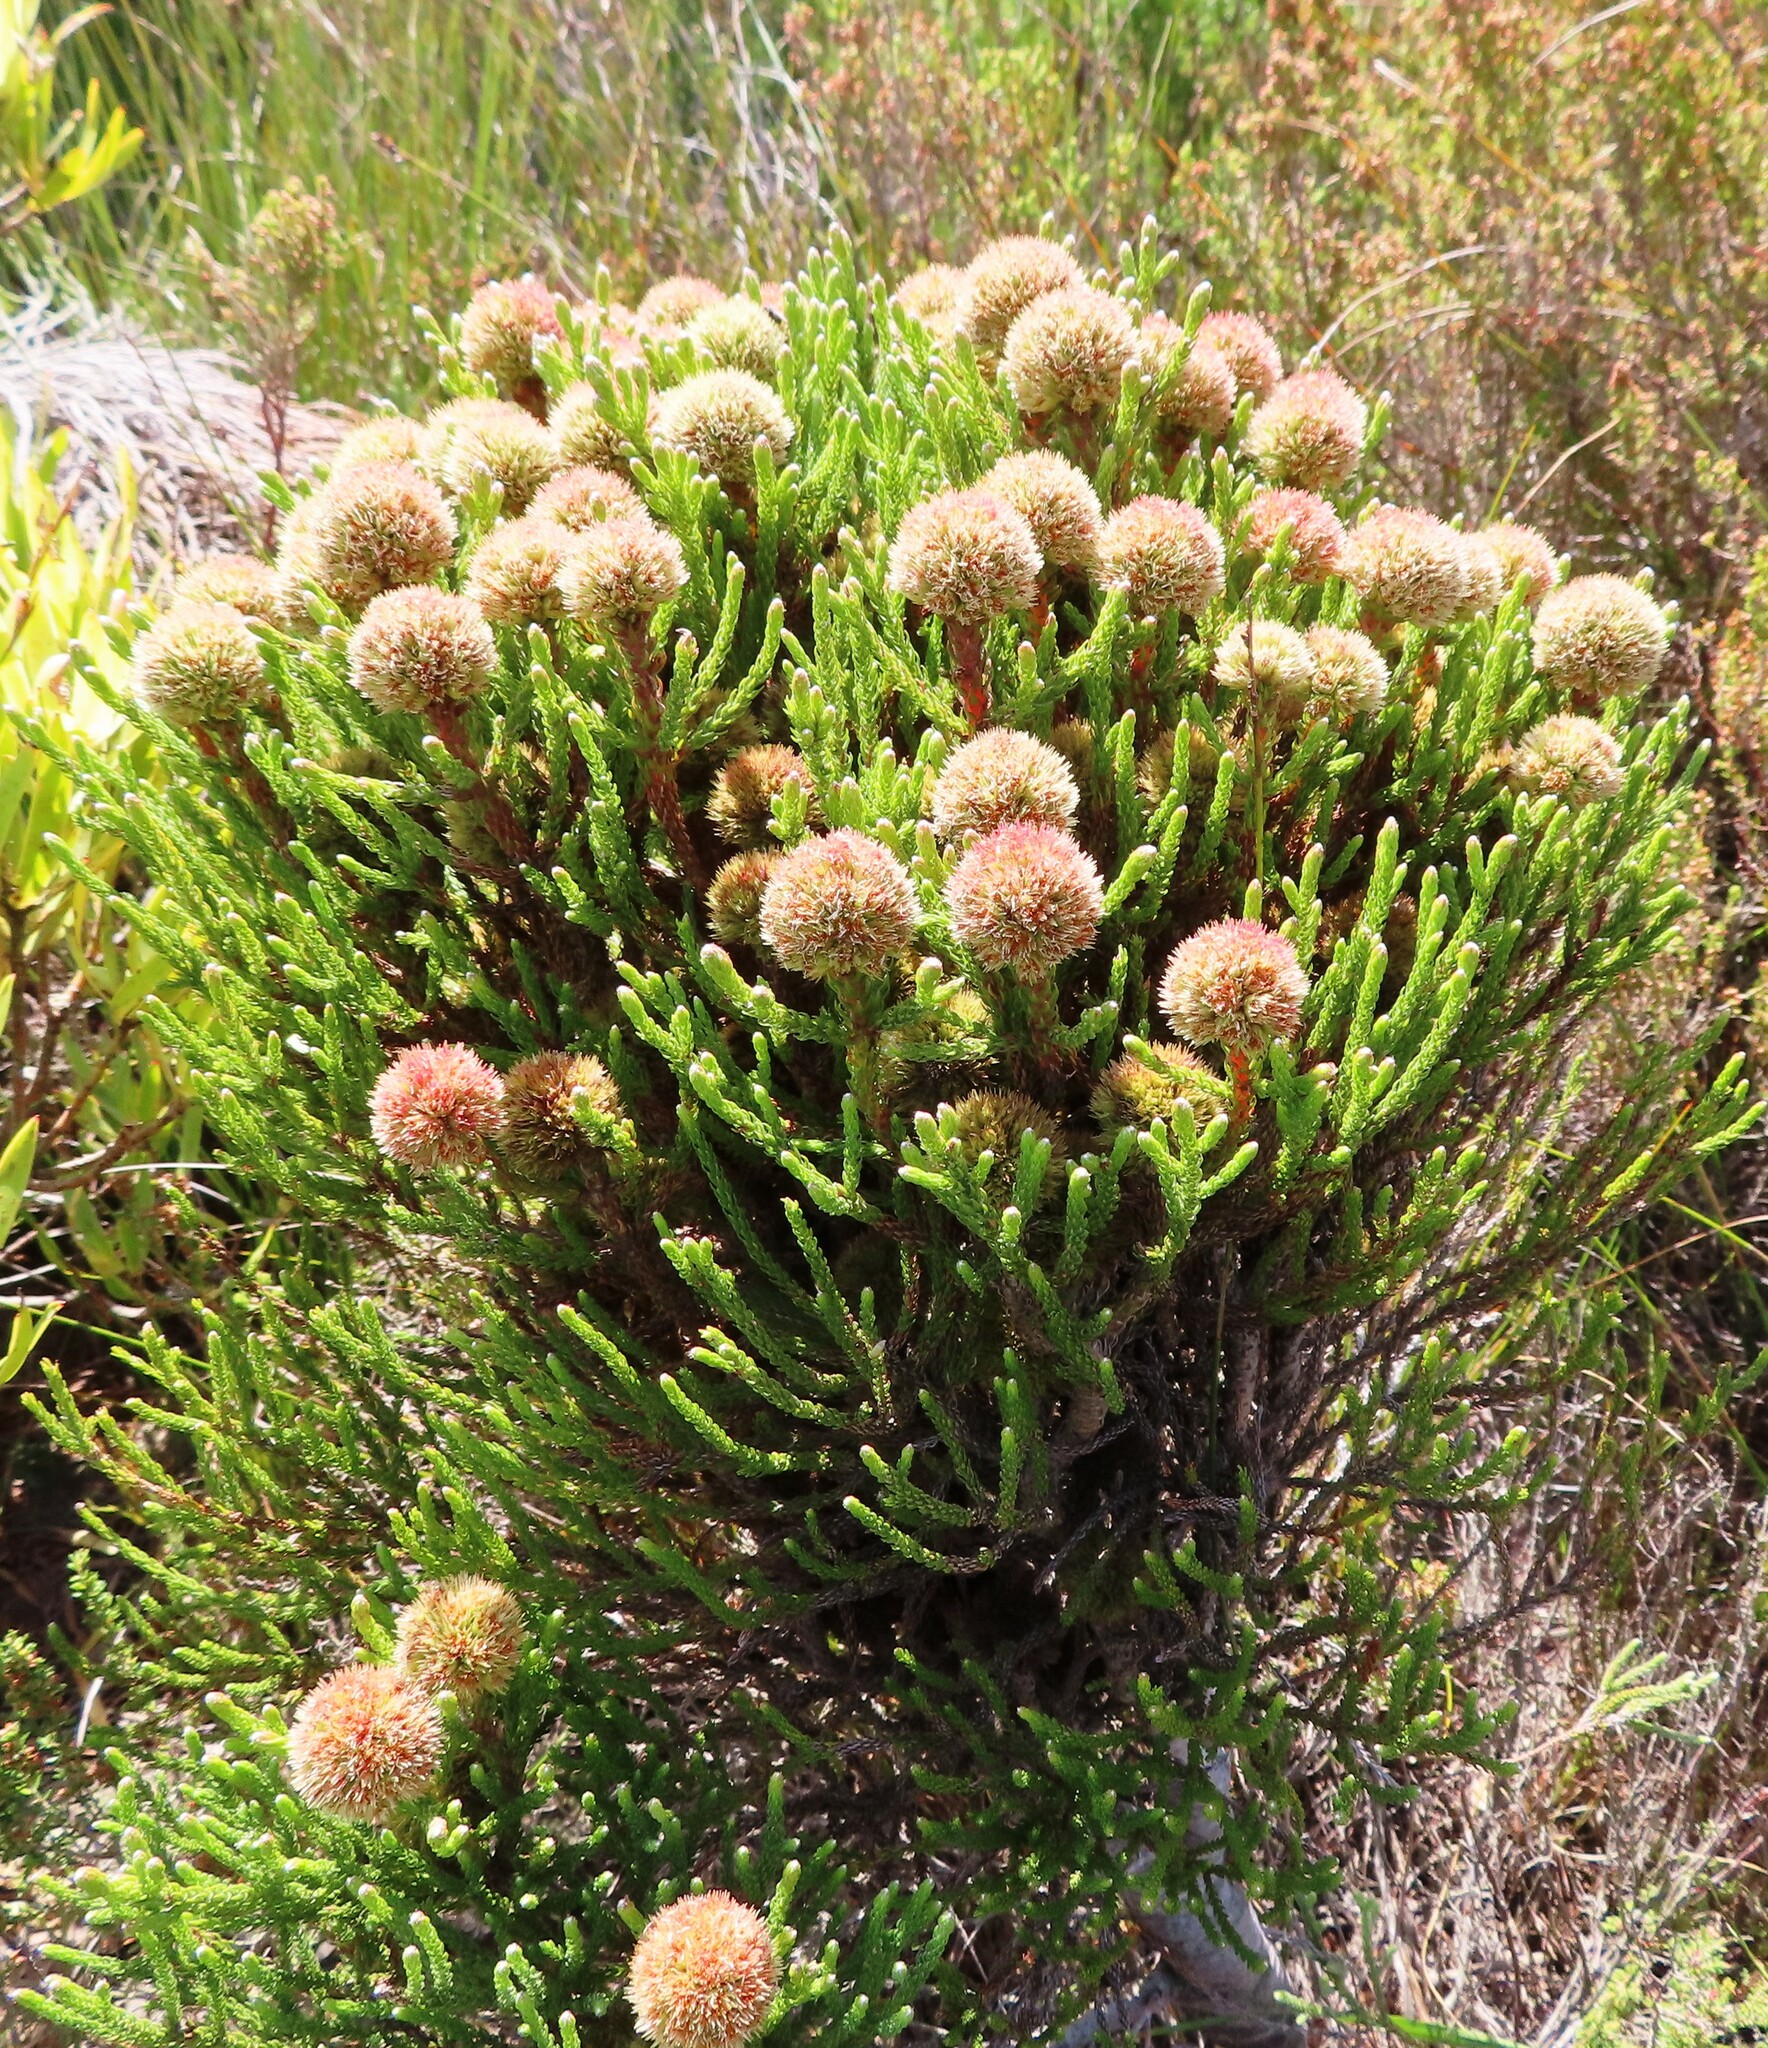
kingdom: Plantae
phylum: Tracheophyta
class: Magnoliopsida
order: Bruniales
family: Bruniaceae
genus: Brunia
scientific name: Brunia fragarioides
